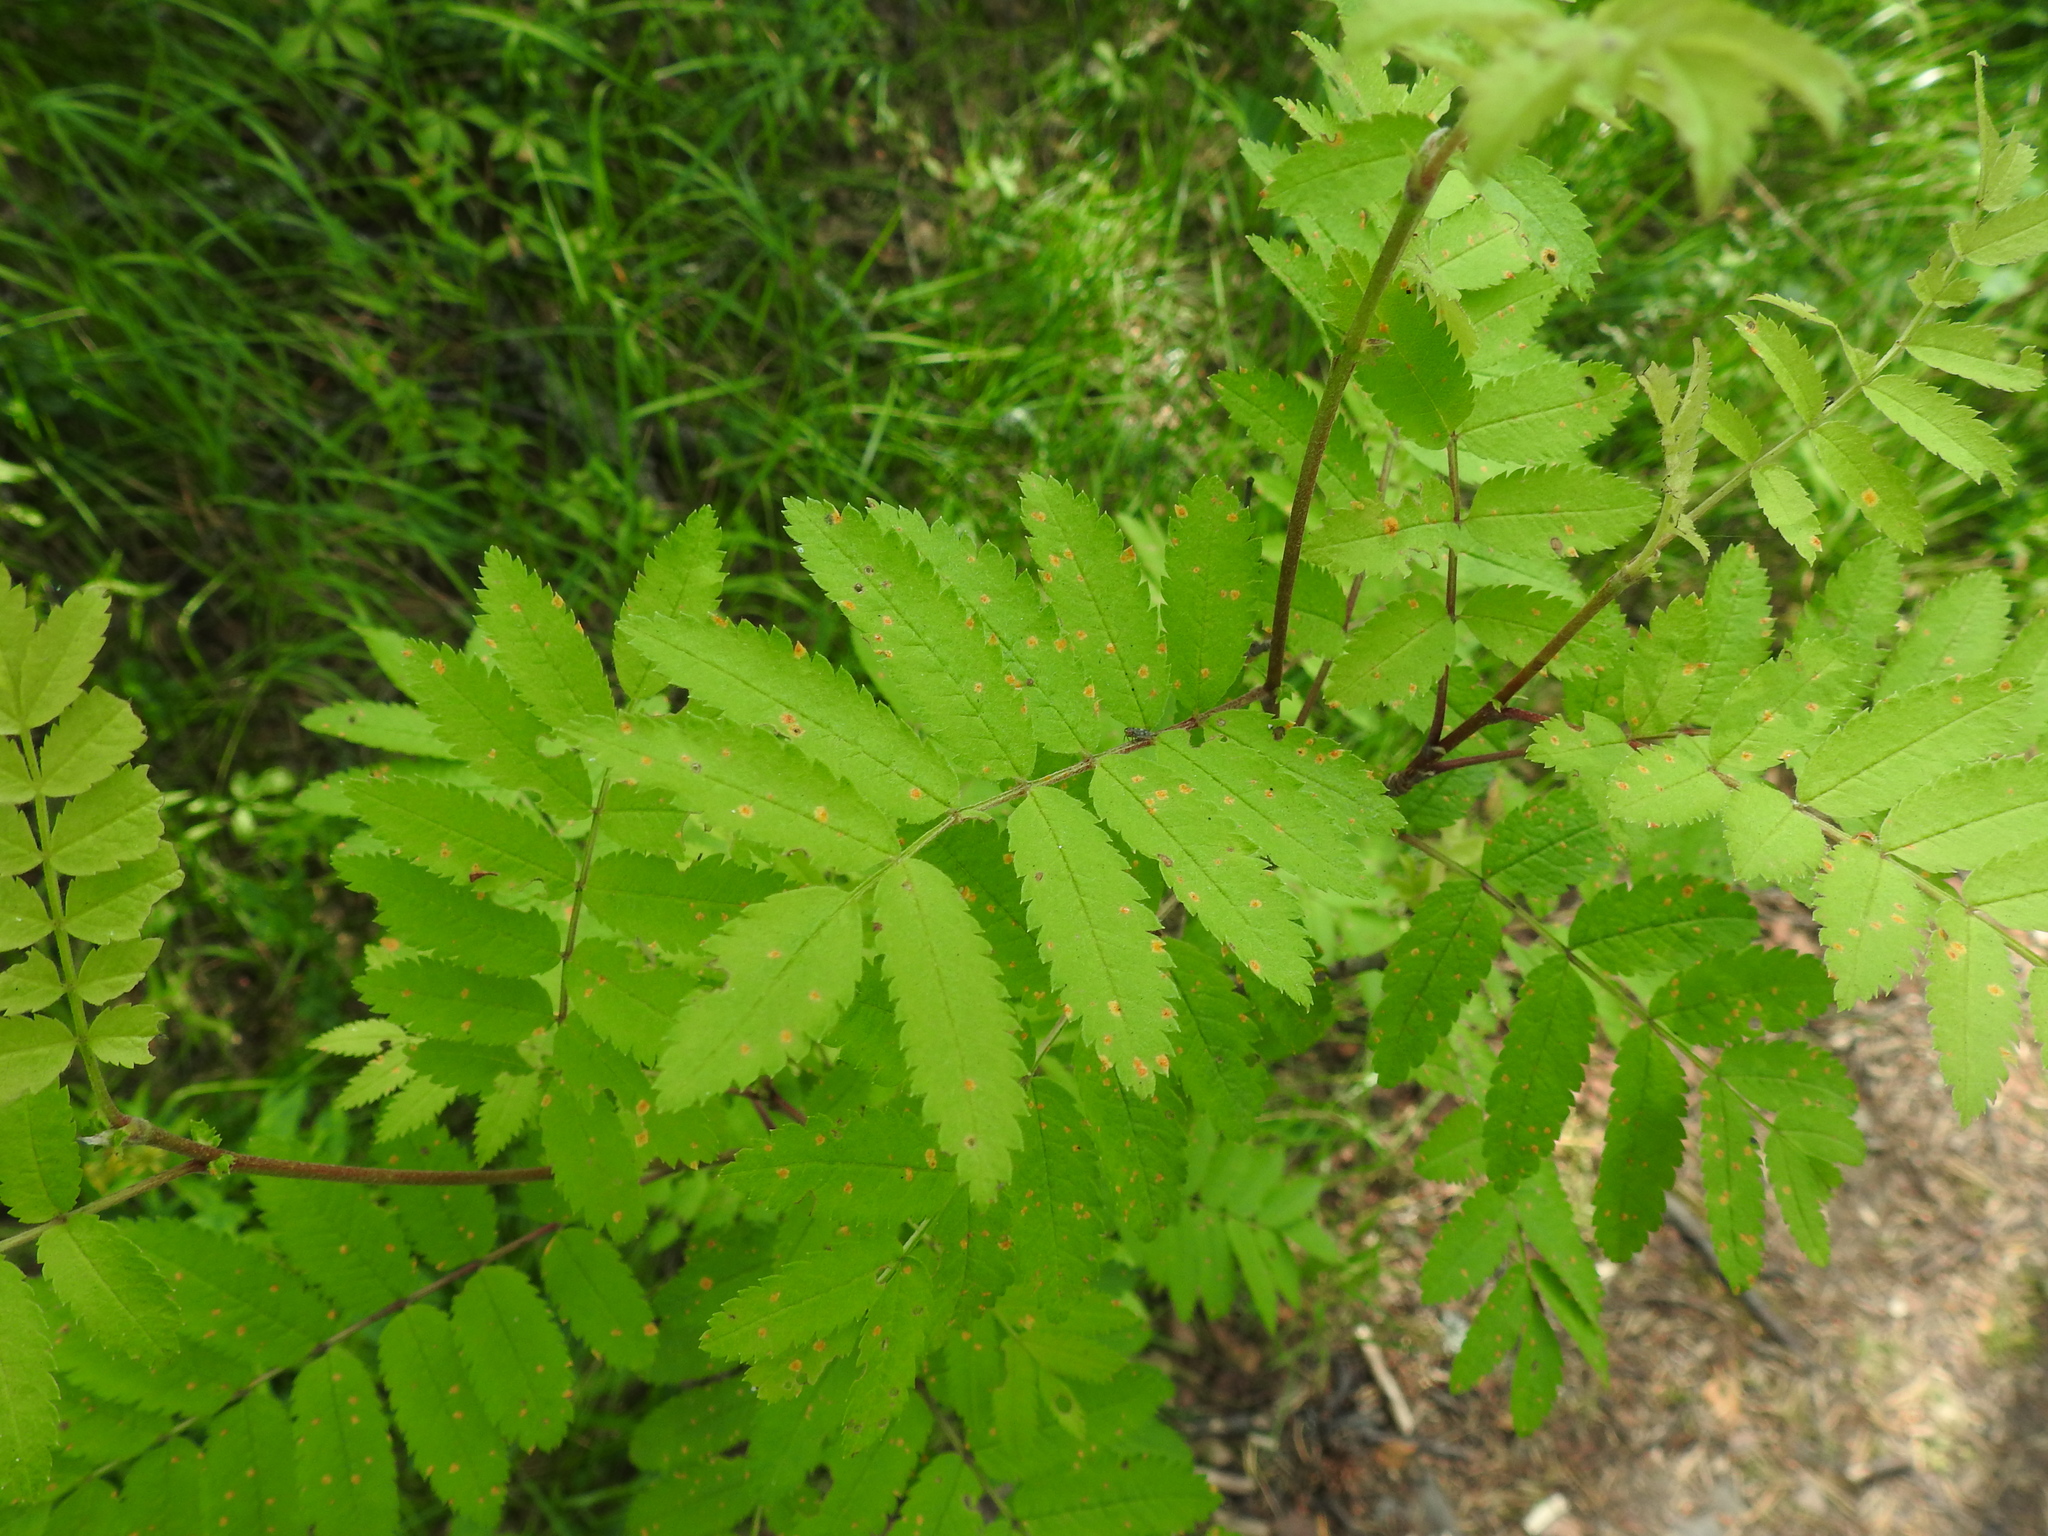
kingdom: Plantae
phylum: Tracheophyta
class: Magnoliopsida
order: Rosales
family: Rosaceae
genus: Sorbus
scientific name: Sorbus aucuparia
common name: Rowan
